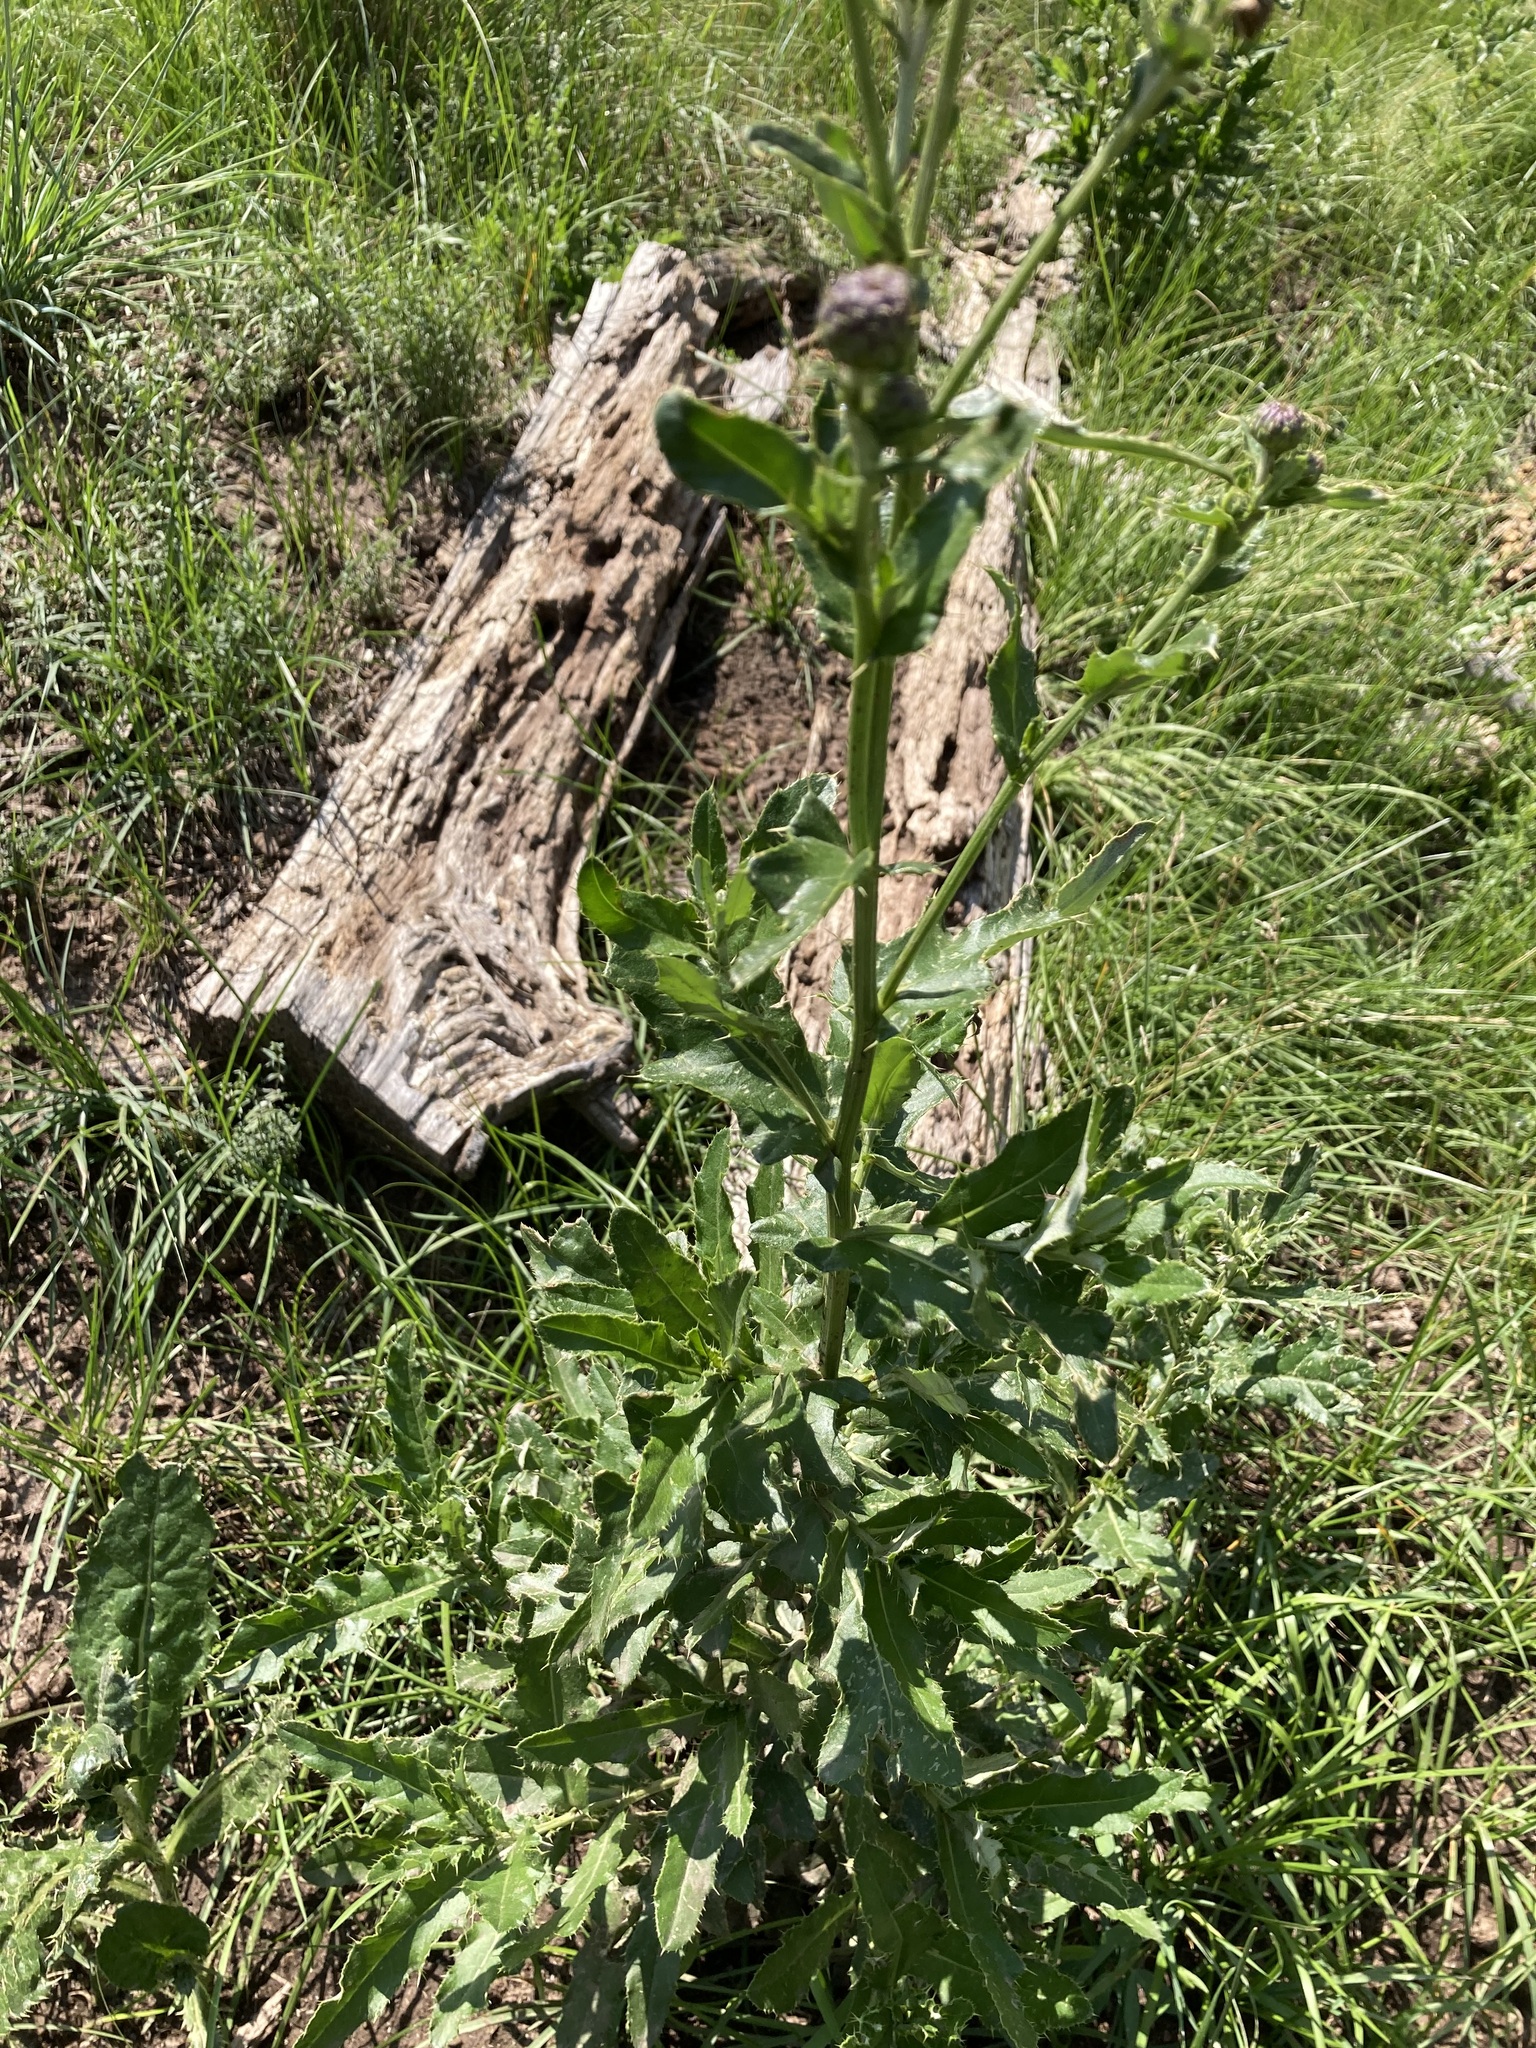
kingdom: Plantae
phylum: Tracheophyta
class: Magnoliopsida
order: Asterales
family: Asteraceae
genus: Cirsium
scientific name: Cirsium arvense
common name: Creeping thistle
